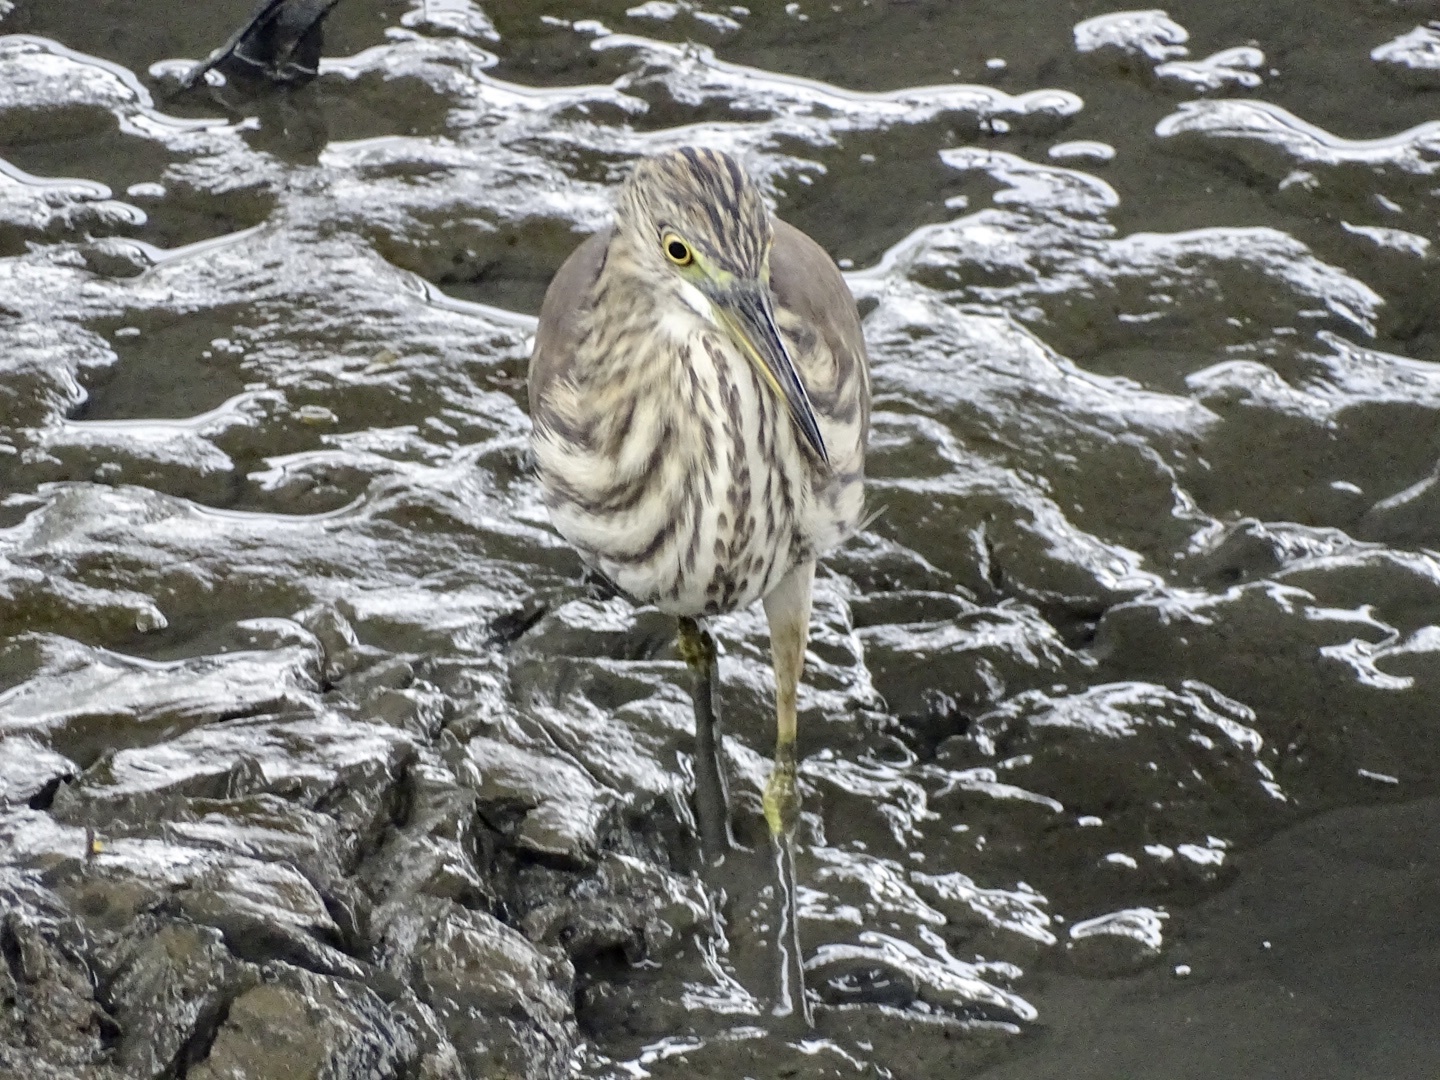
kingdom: Animalia
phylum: Chordata
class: Aves
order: Pelecaniformes
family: Ardeidae
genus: Ardeola
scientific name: Ardeola bacchus
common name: Chinese pond heron
